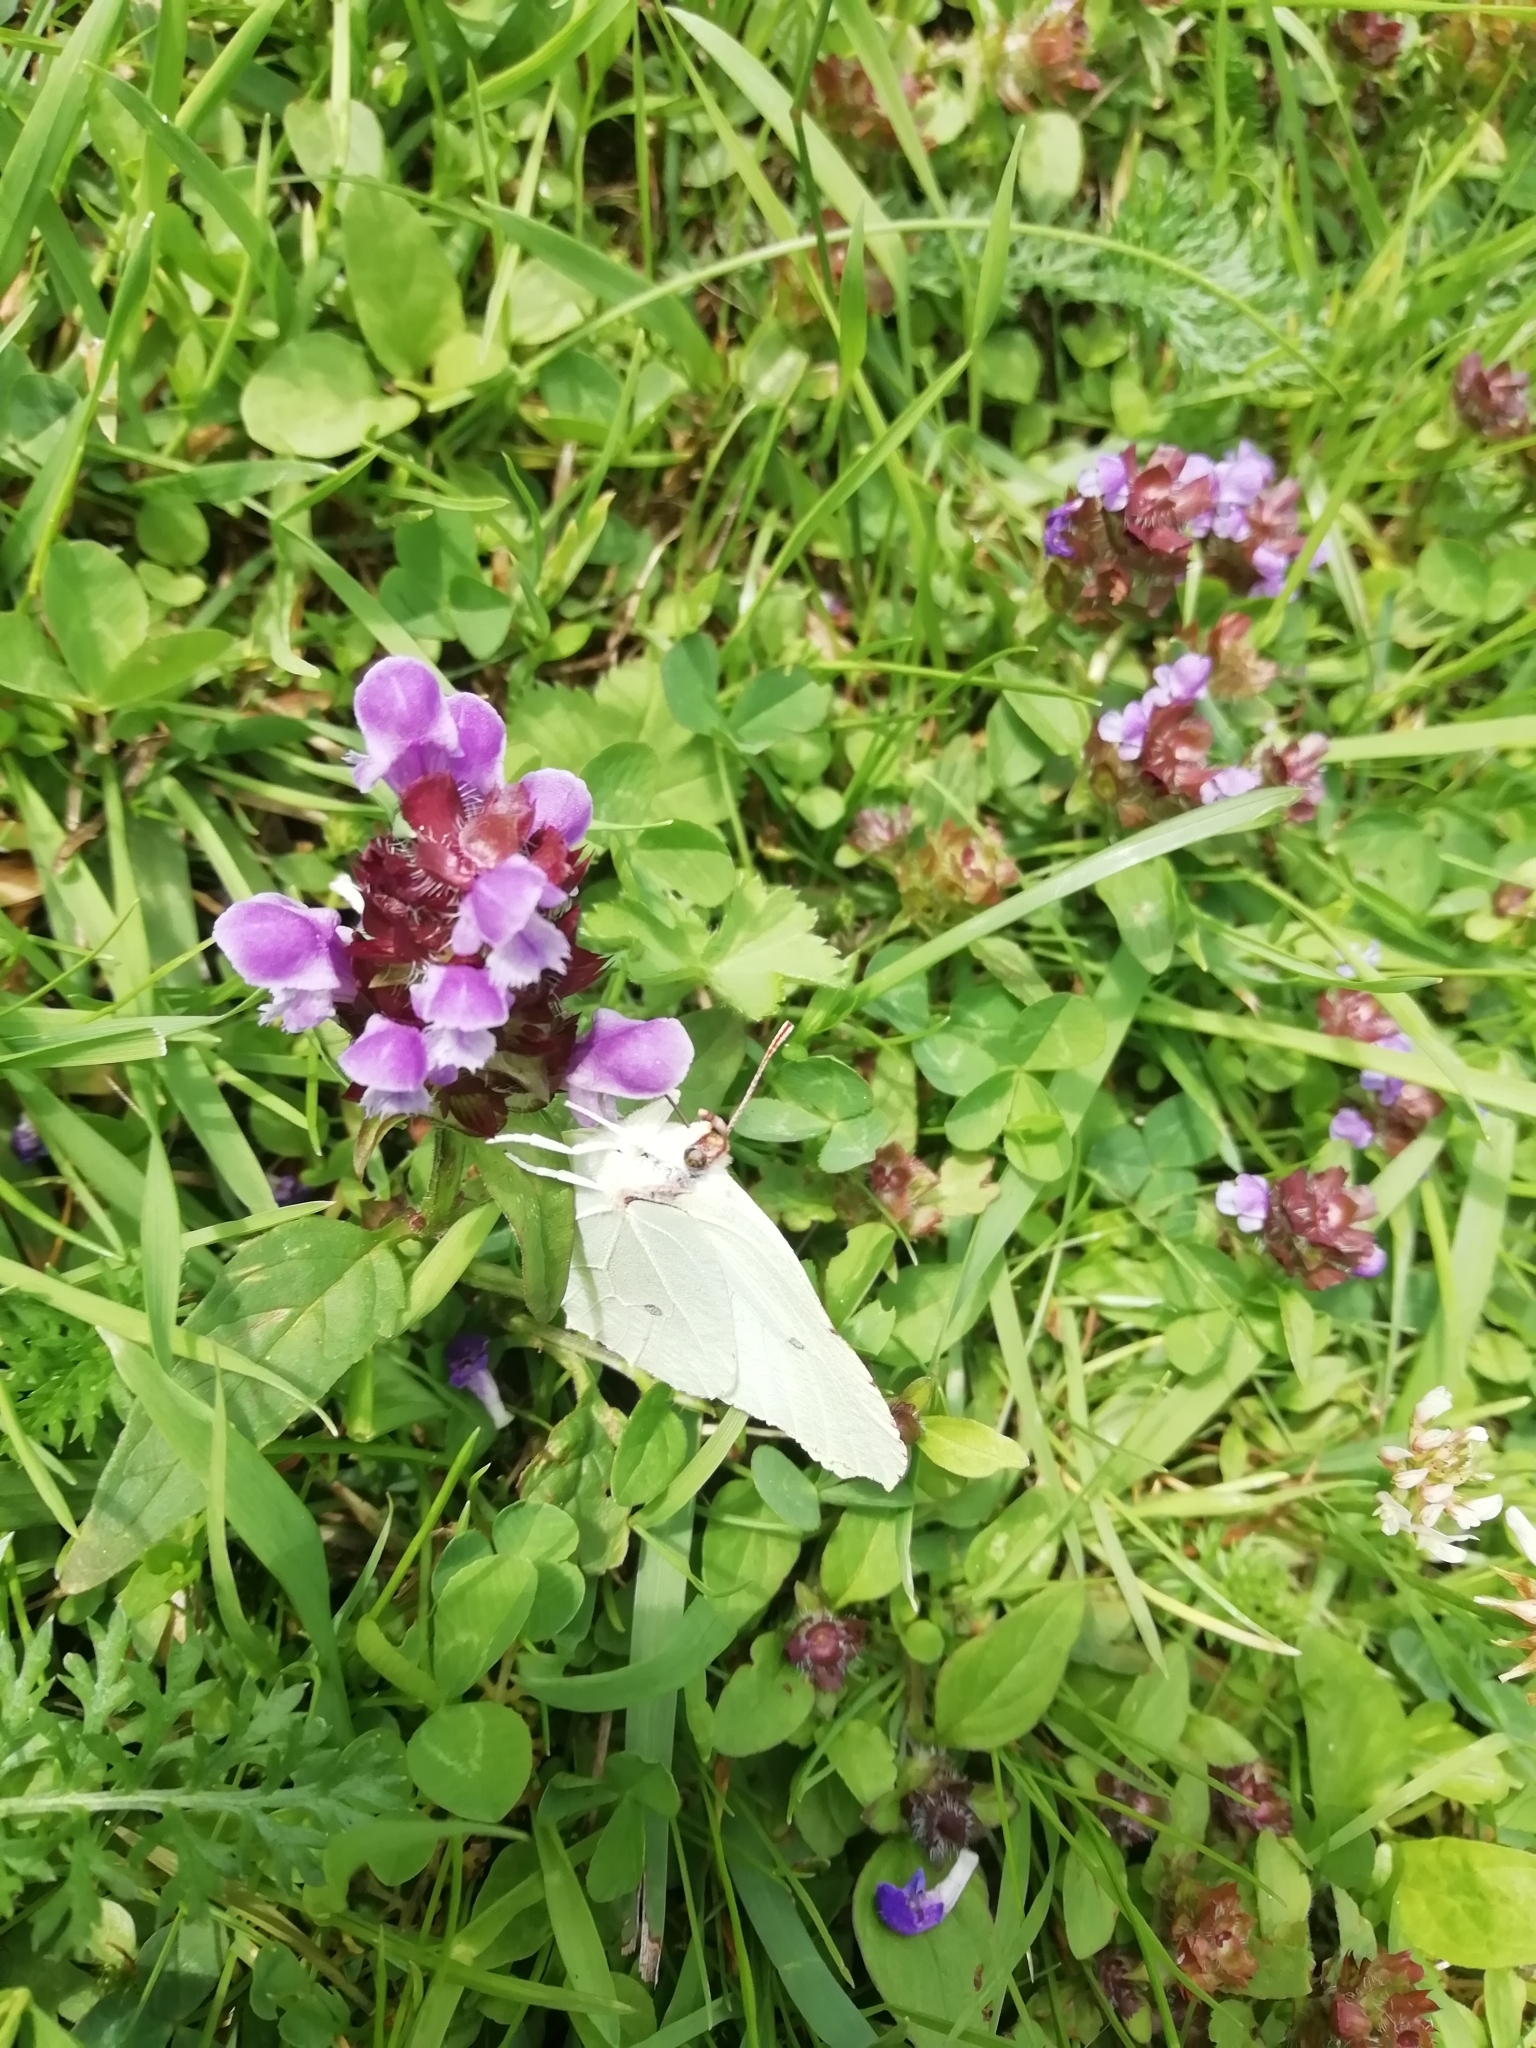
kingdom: Animalia
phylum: Arthropoda
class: Insecta
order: Lepidoptera
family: Pieridae
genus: Gonepteryx
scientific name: Gonepteryx rhamni
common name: Brimstone
